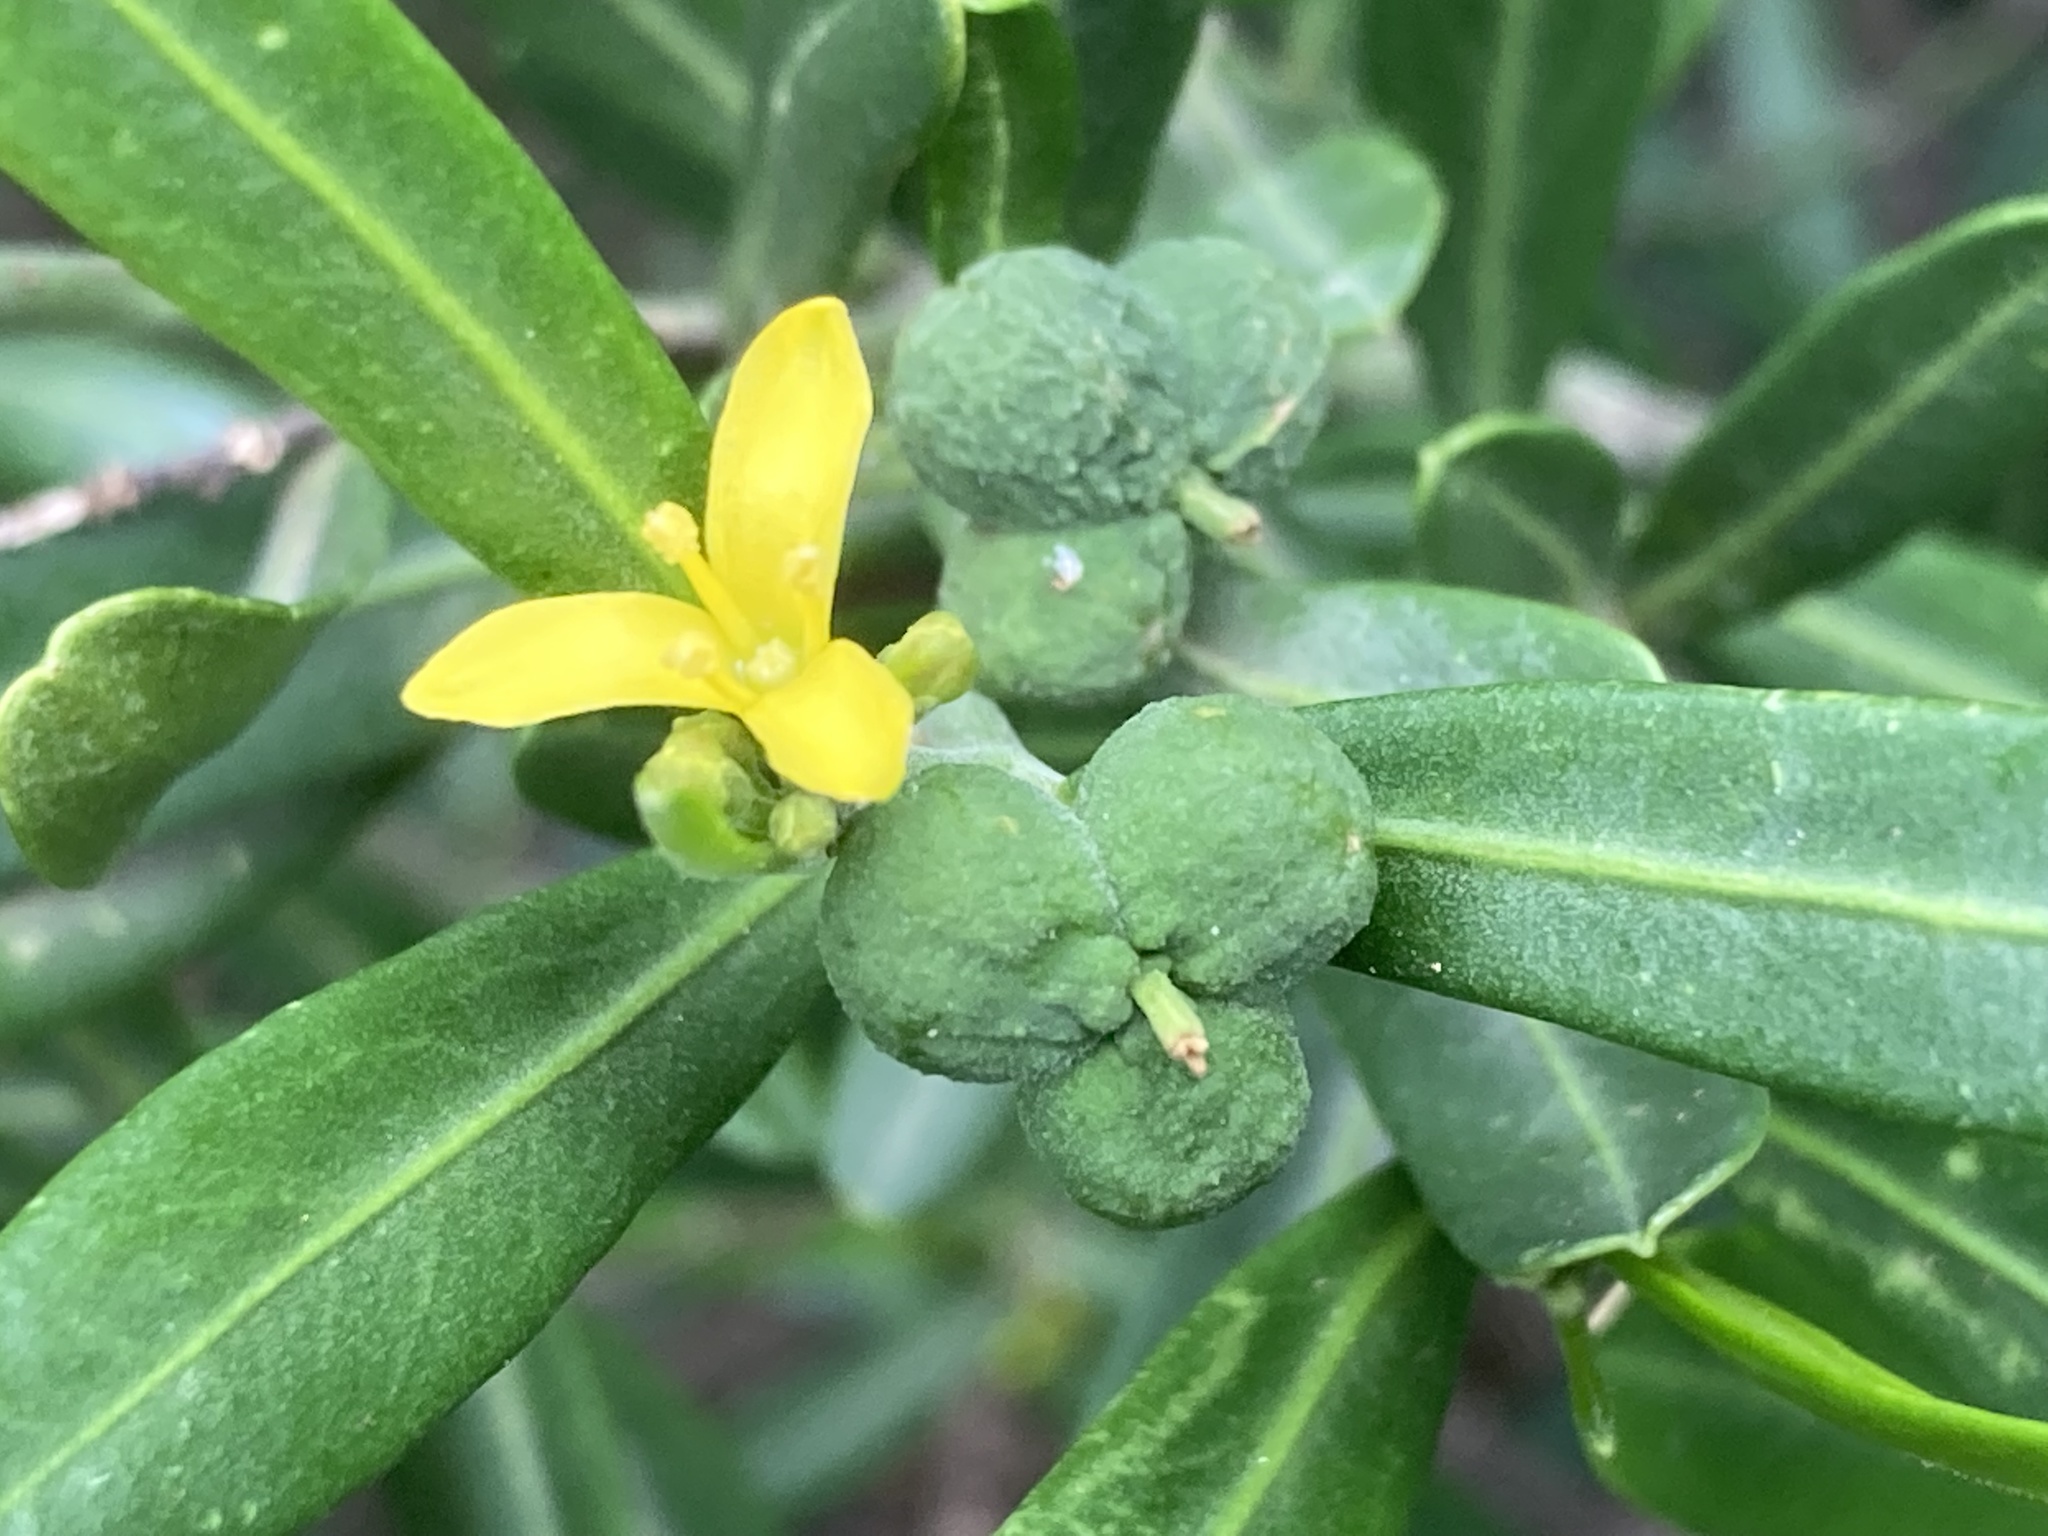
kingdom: Plantae
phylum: Tracheophyta
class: Magnoliopsida
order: Sapindales
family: Rutaceae
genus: Cneorum
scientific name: Cneorum tricoccon
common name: Spurge olive
